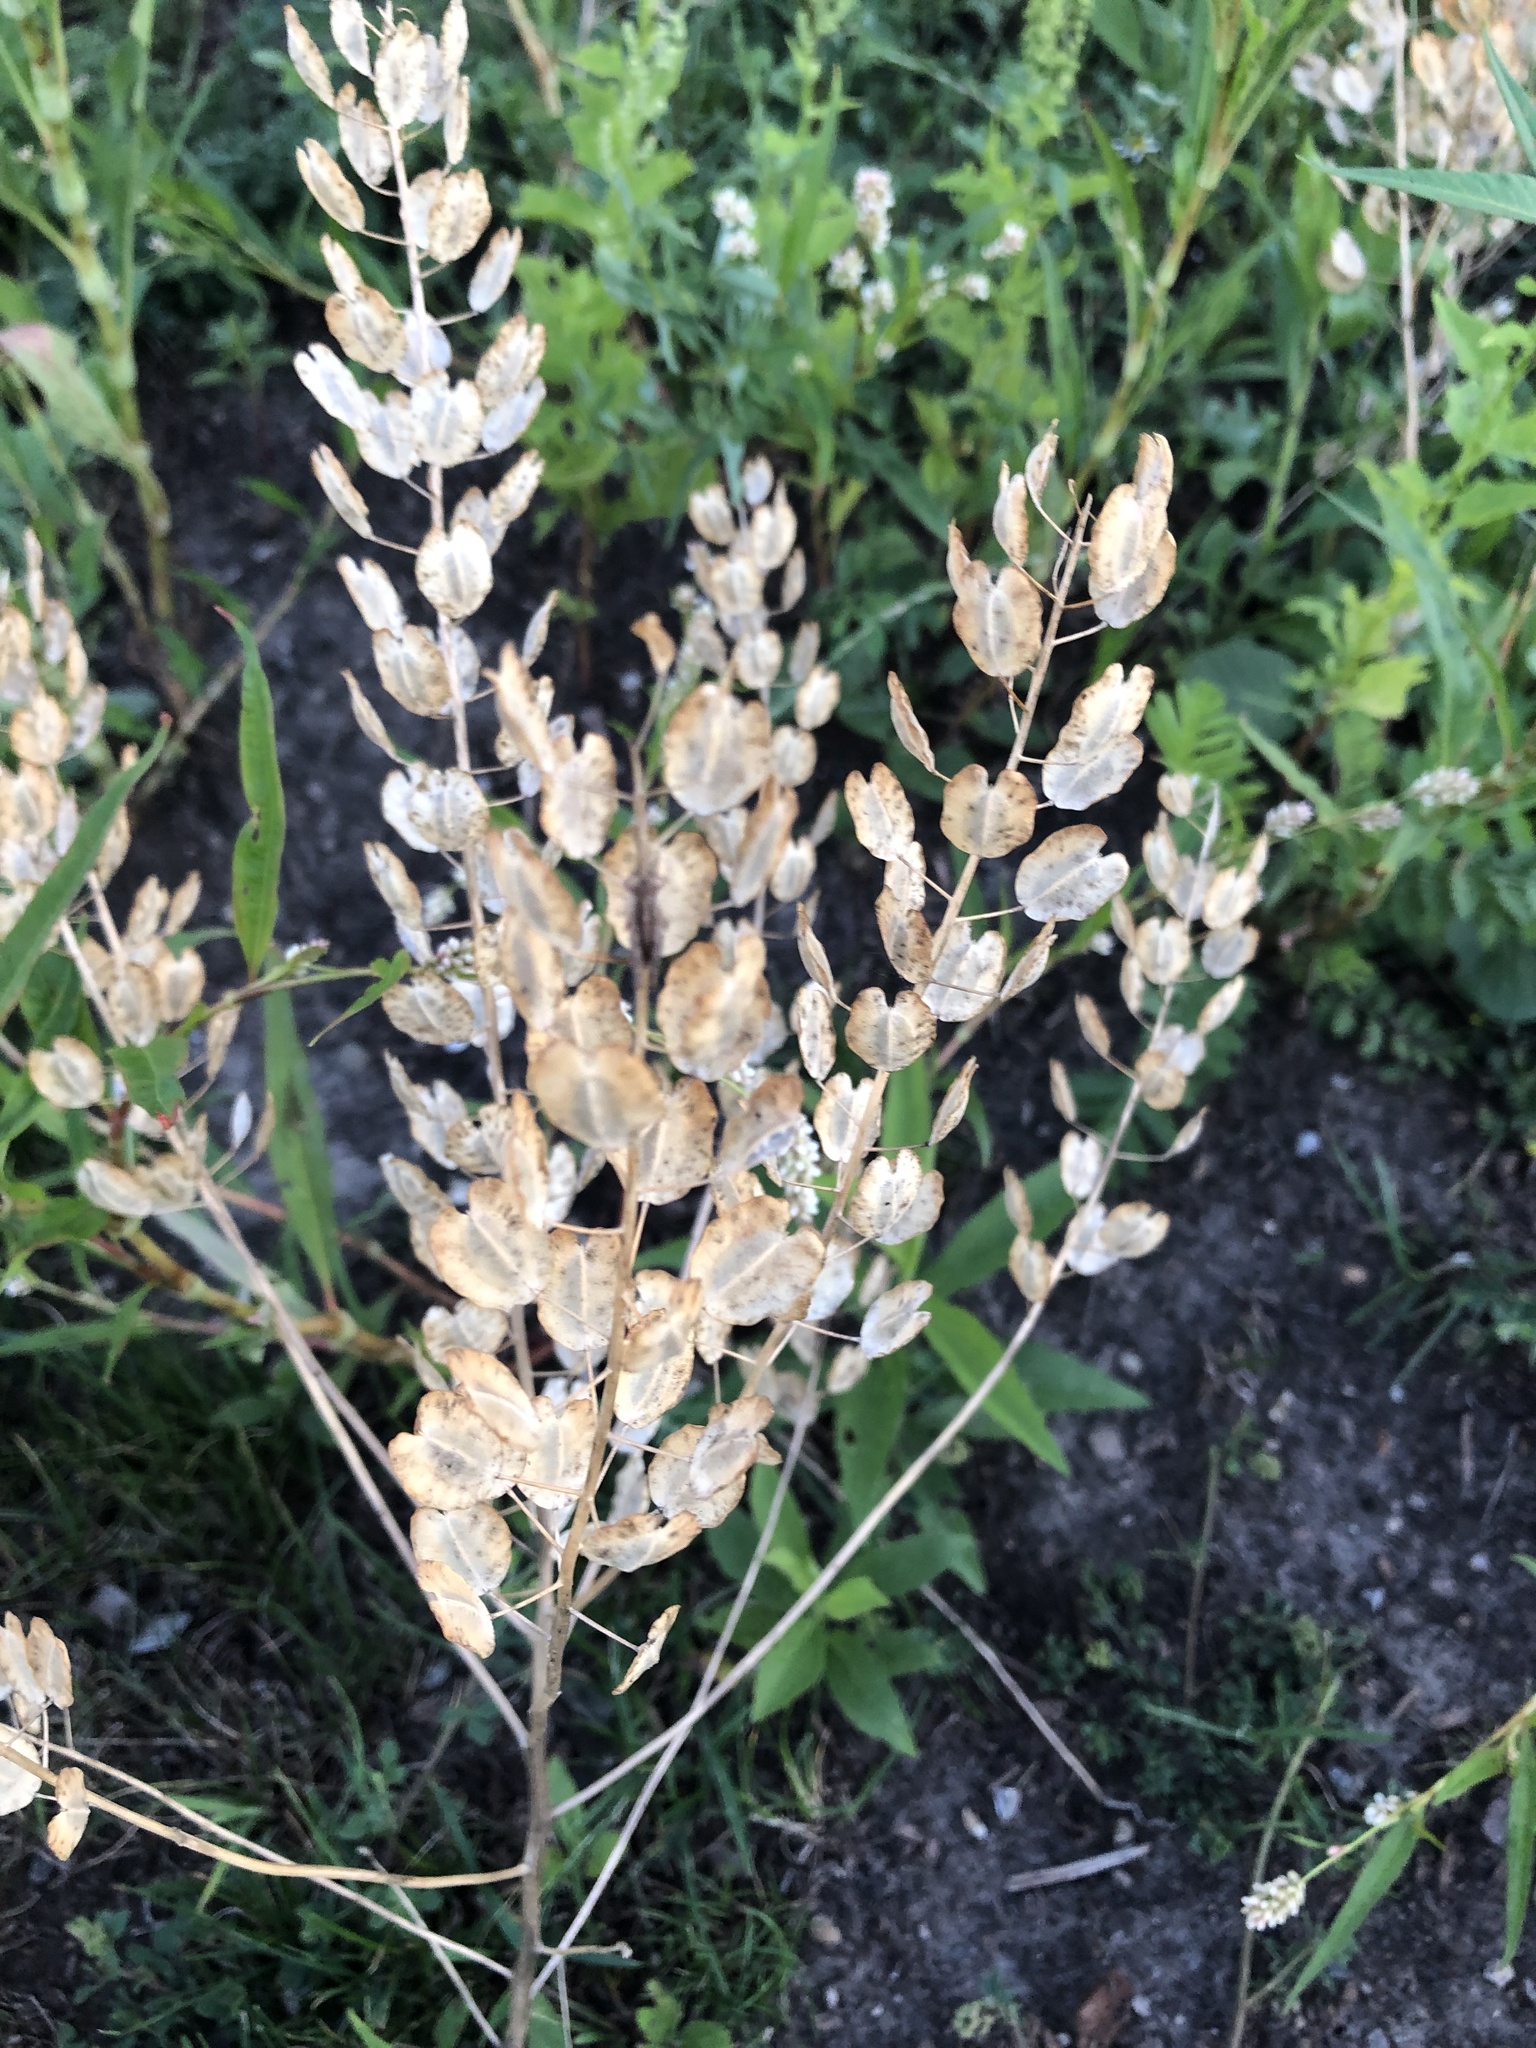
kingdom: Plantae
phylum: Tracheophyta
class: Magnoliopsida
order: Brassicales
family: Brassicaceae
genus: Thlaspi
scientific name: Thlaspi arvense
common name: Field pennycress
